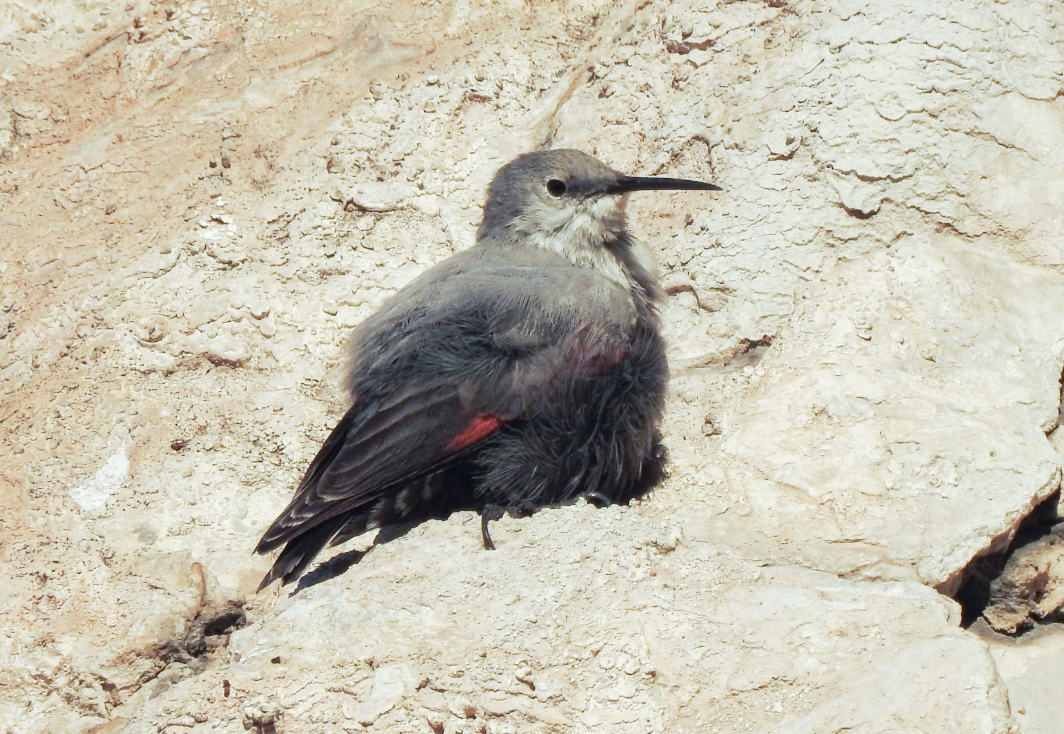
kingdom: Animalia
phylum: Chordata
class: Aves
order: Passeriformes
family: Tichodromidae
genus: Tichodroma
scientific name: Tichodroma muraria
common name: Wallcreeper
